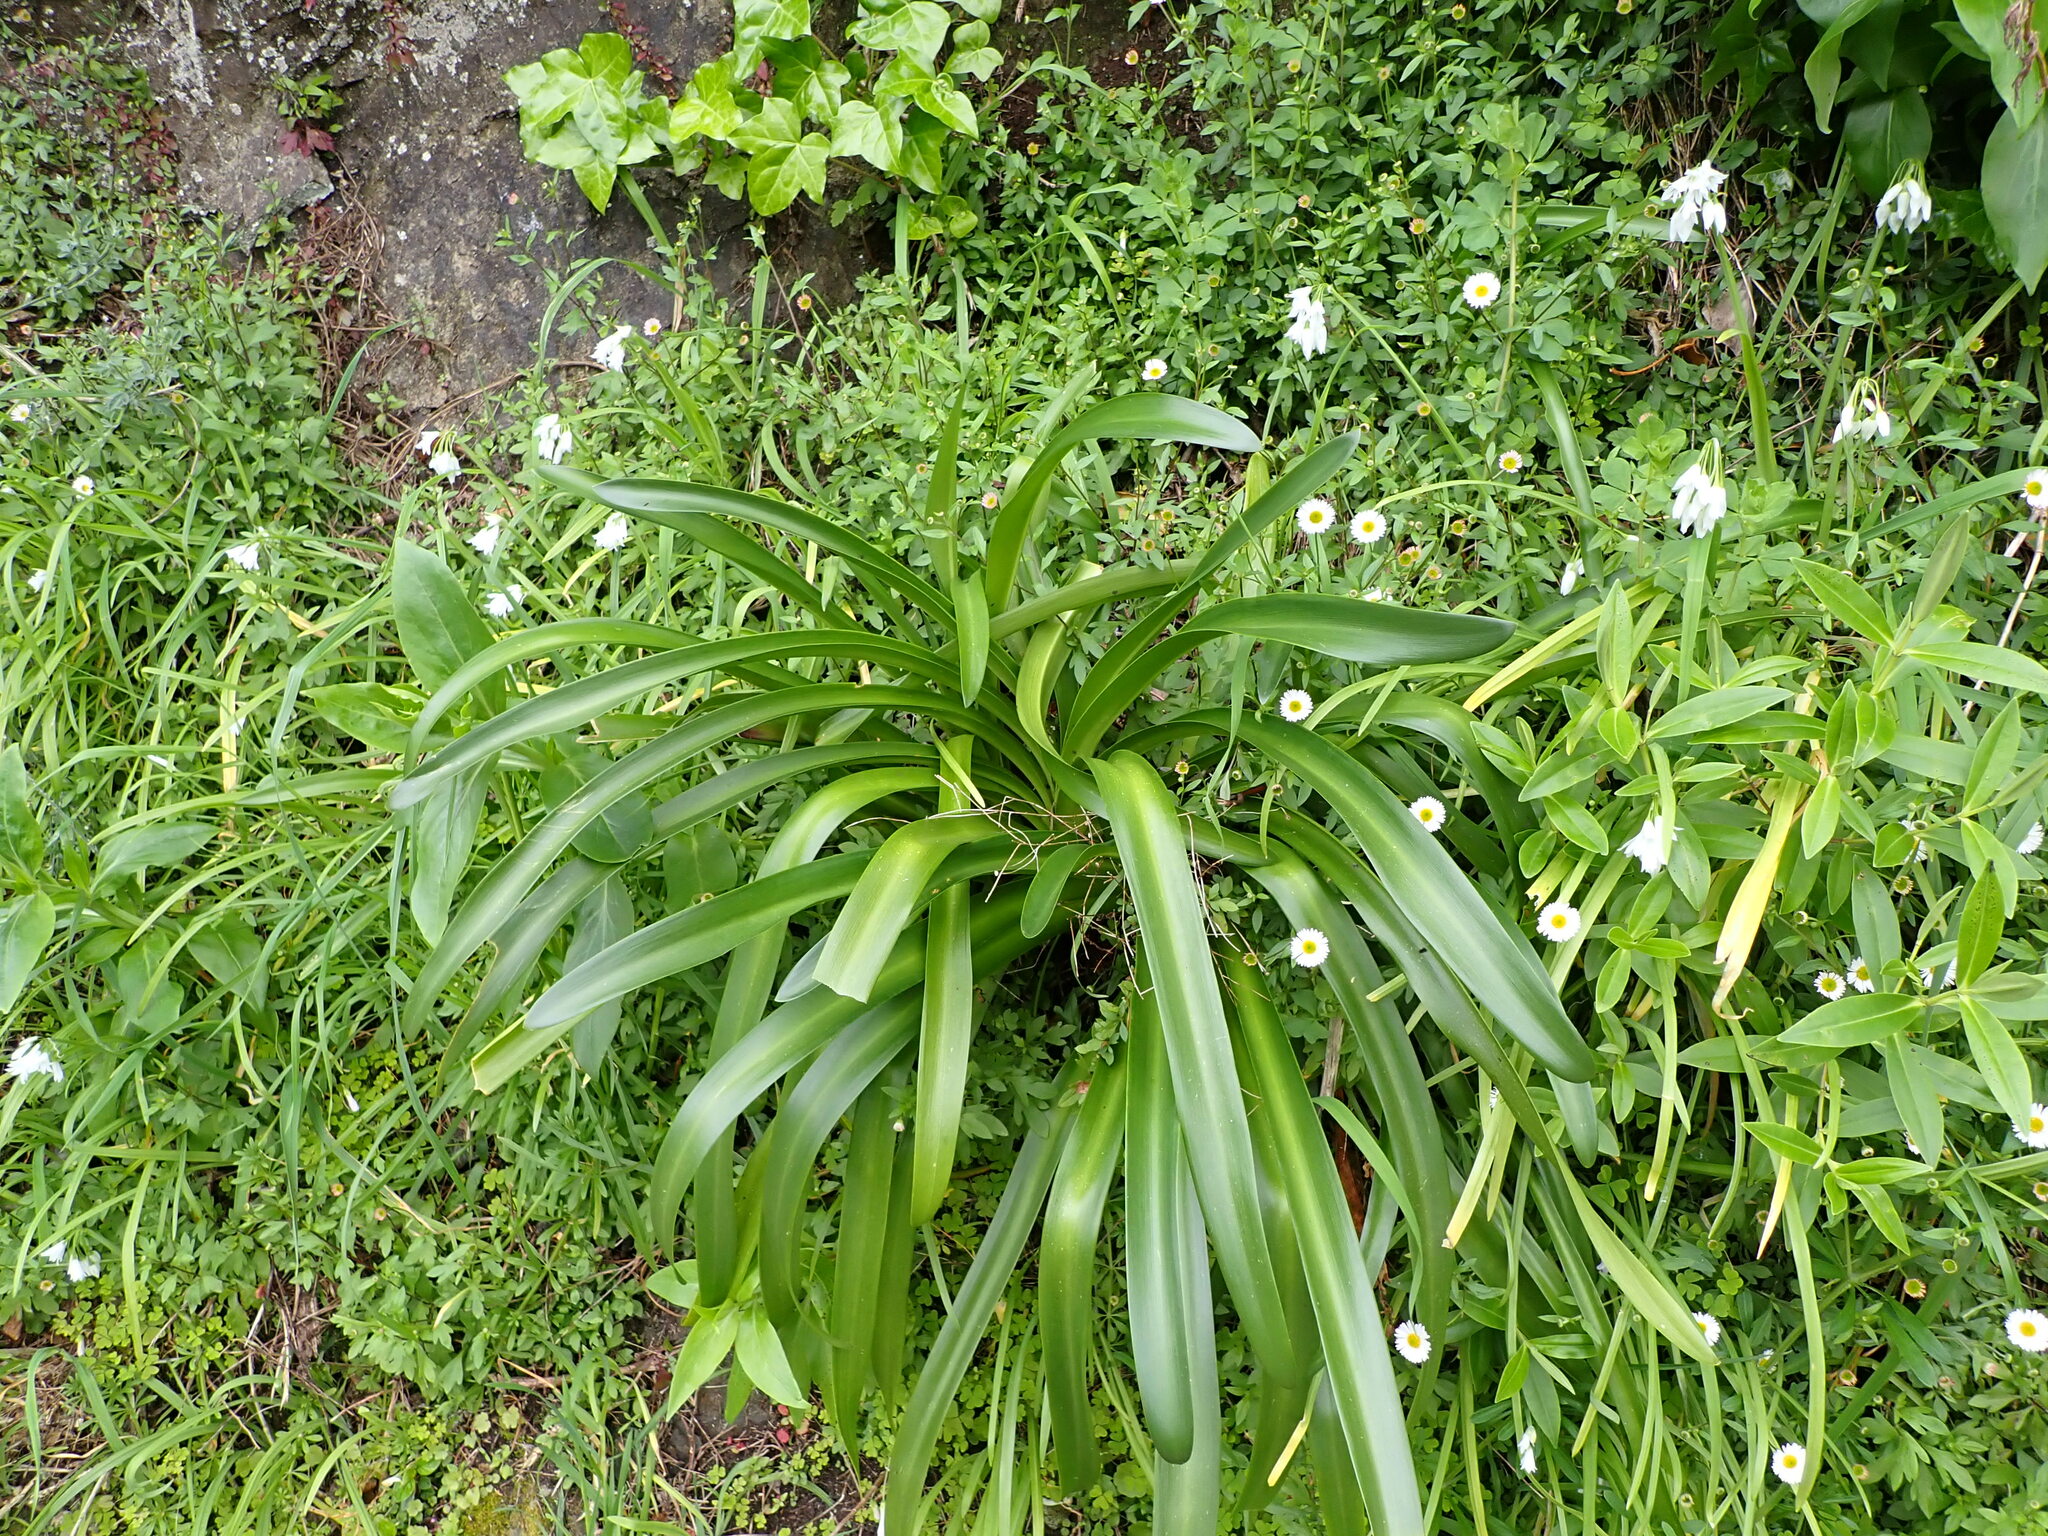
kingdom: Plantae
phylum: Tracheophyta
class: Liliopsida
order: Asparagales
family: Amaryllidaceae
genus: Agapanthus
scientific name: Agapanthus praecox
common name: African-lily
